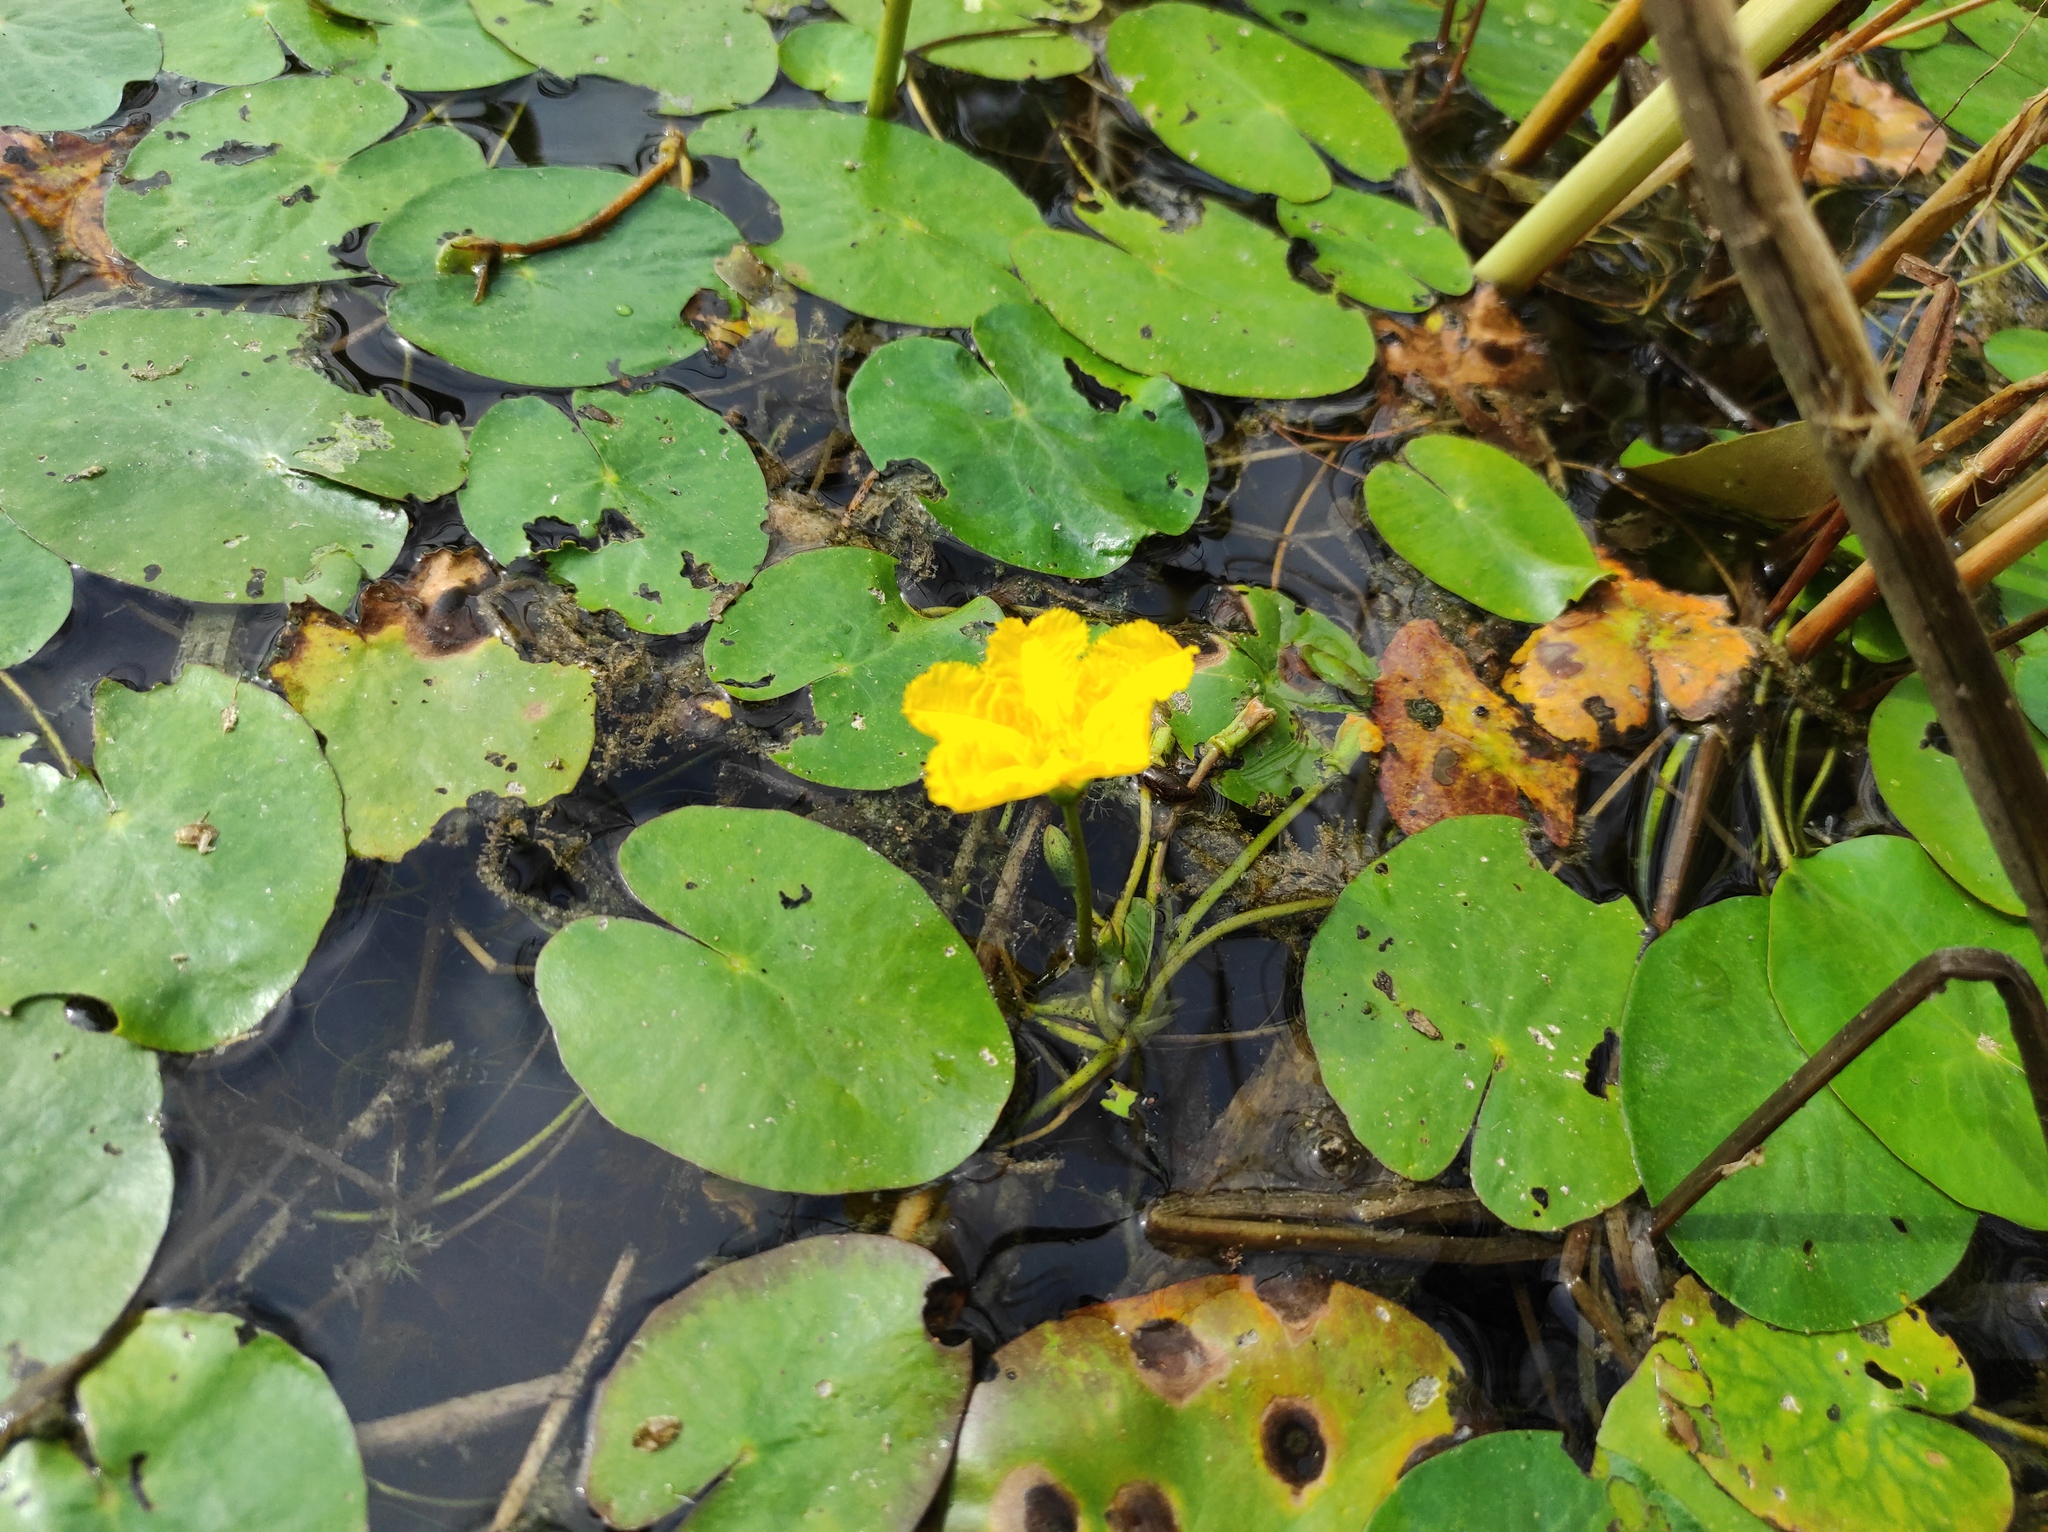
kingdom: Plantae
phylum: Tracheophyta
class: Magnoliopsida
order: Asterales
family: Menyanthaceae
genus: Nymphoides
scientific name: Nymphoides peltata
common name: Fringed water-lily
